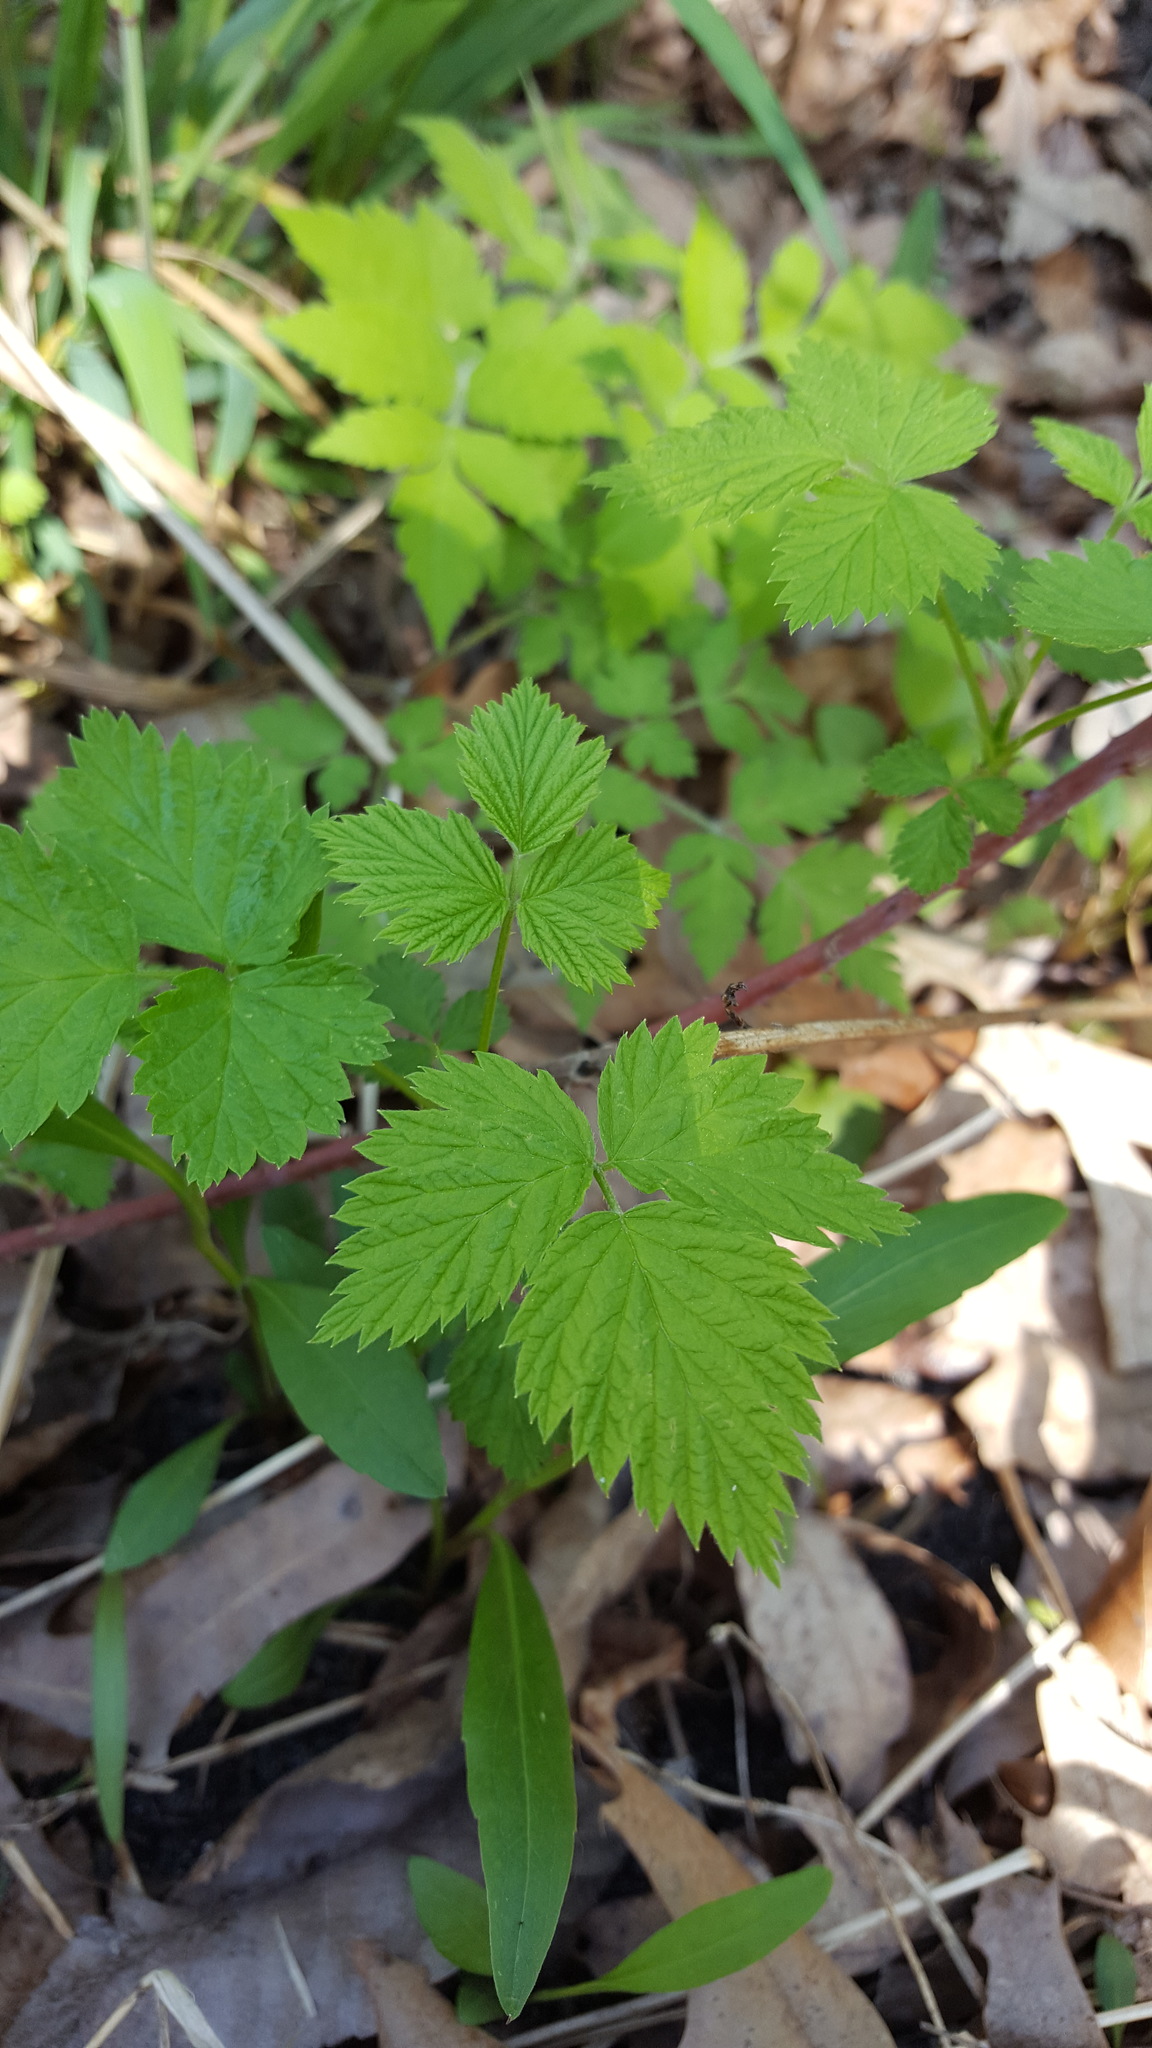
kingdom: Plantae
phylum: Tracheophyta
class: Magnoliopsida
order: Rosales
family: Rosaceae
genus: Rubus
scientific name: Rubus occidentalis
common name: Black raspberry
